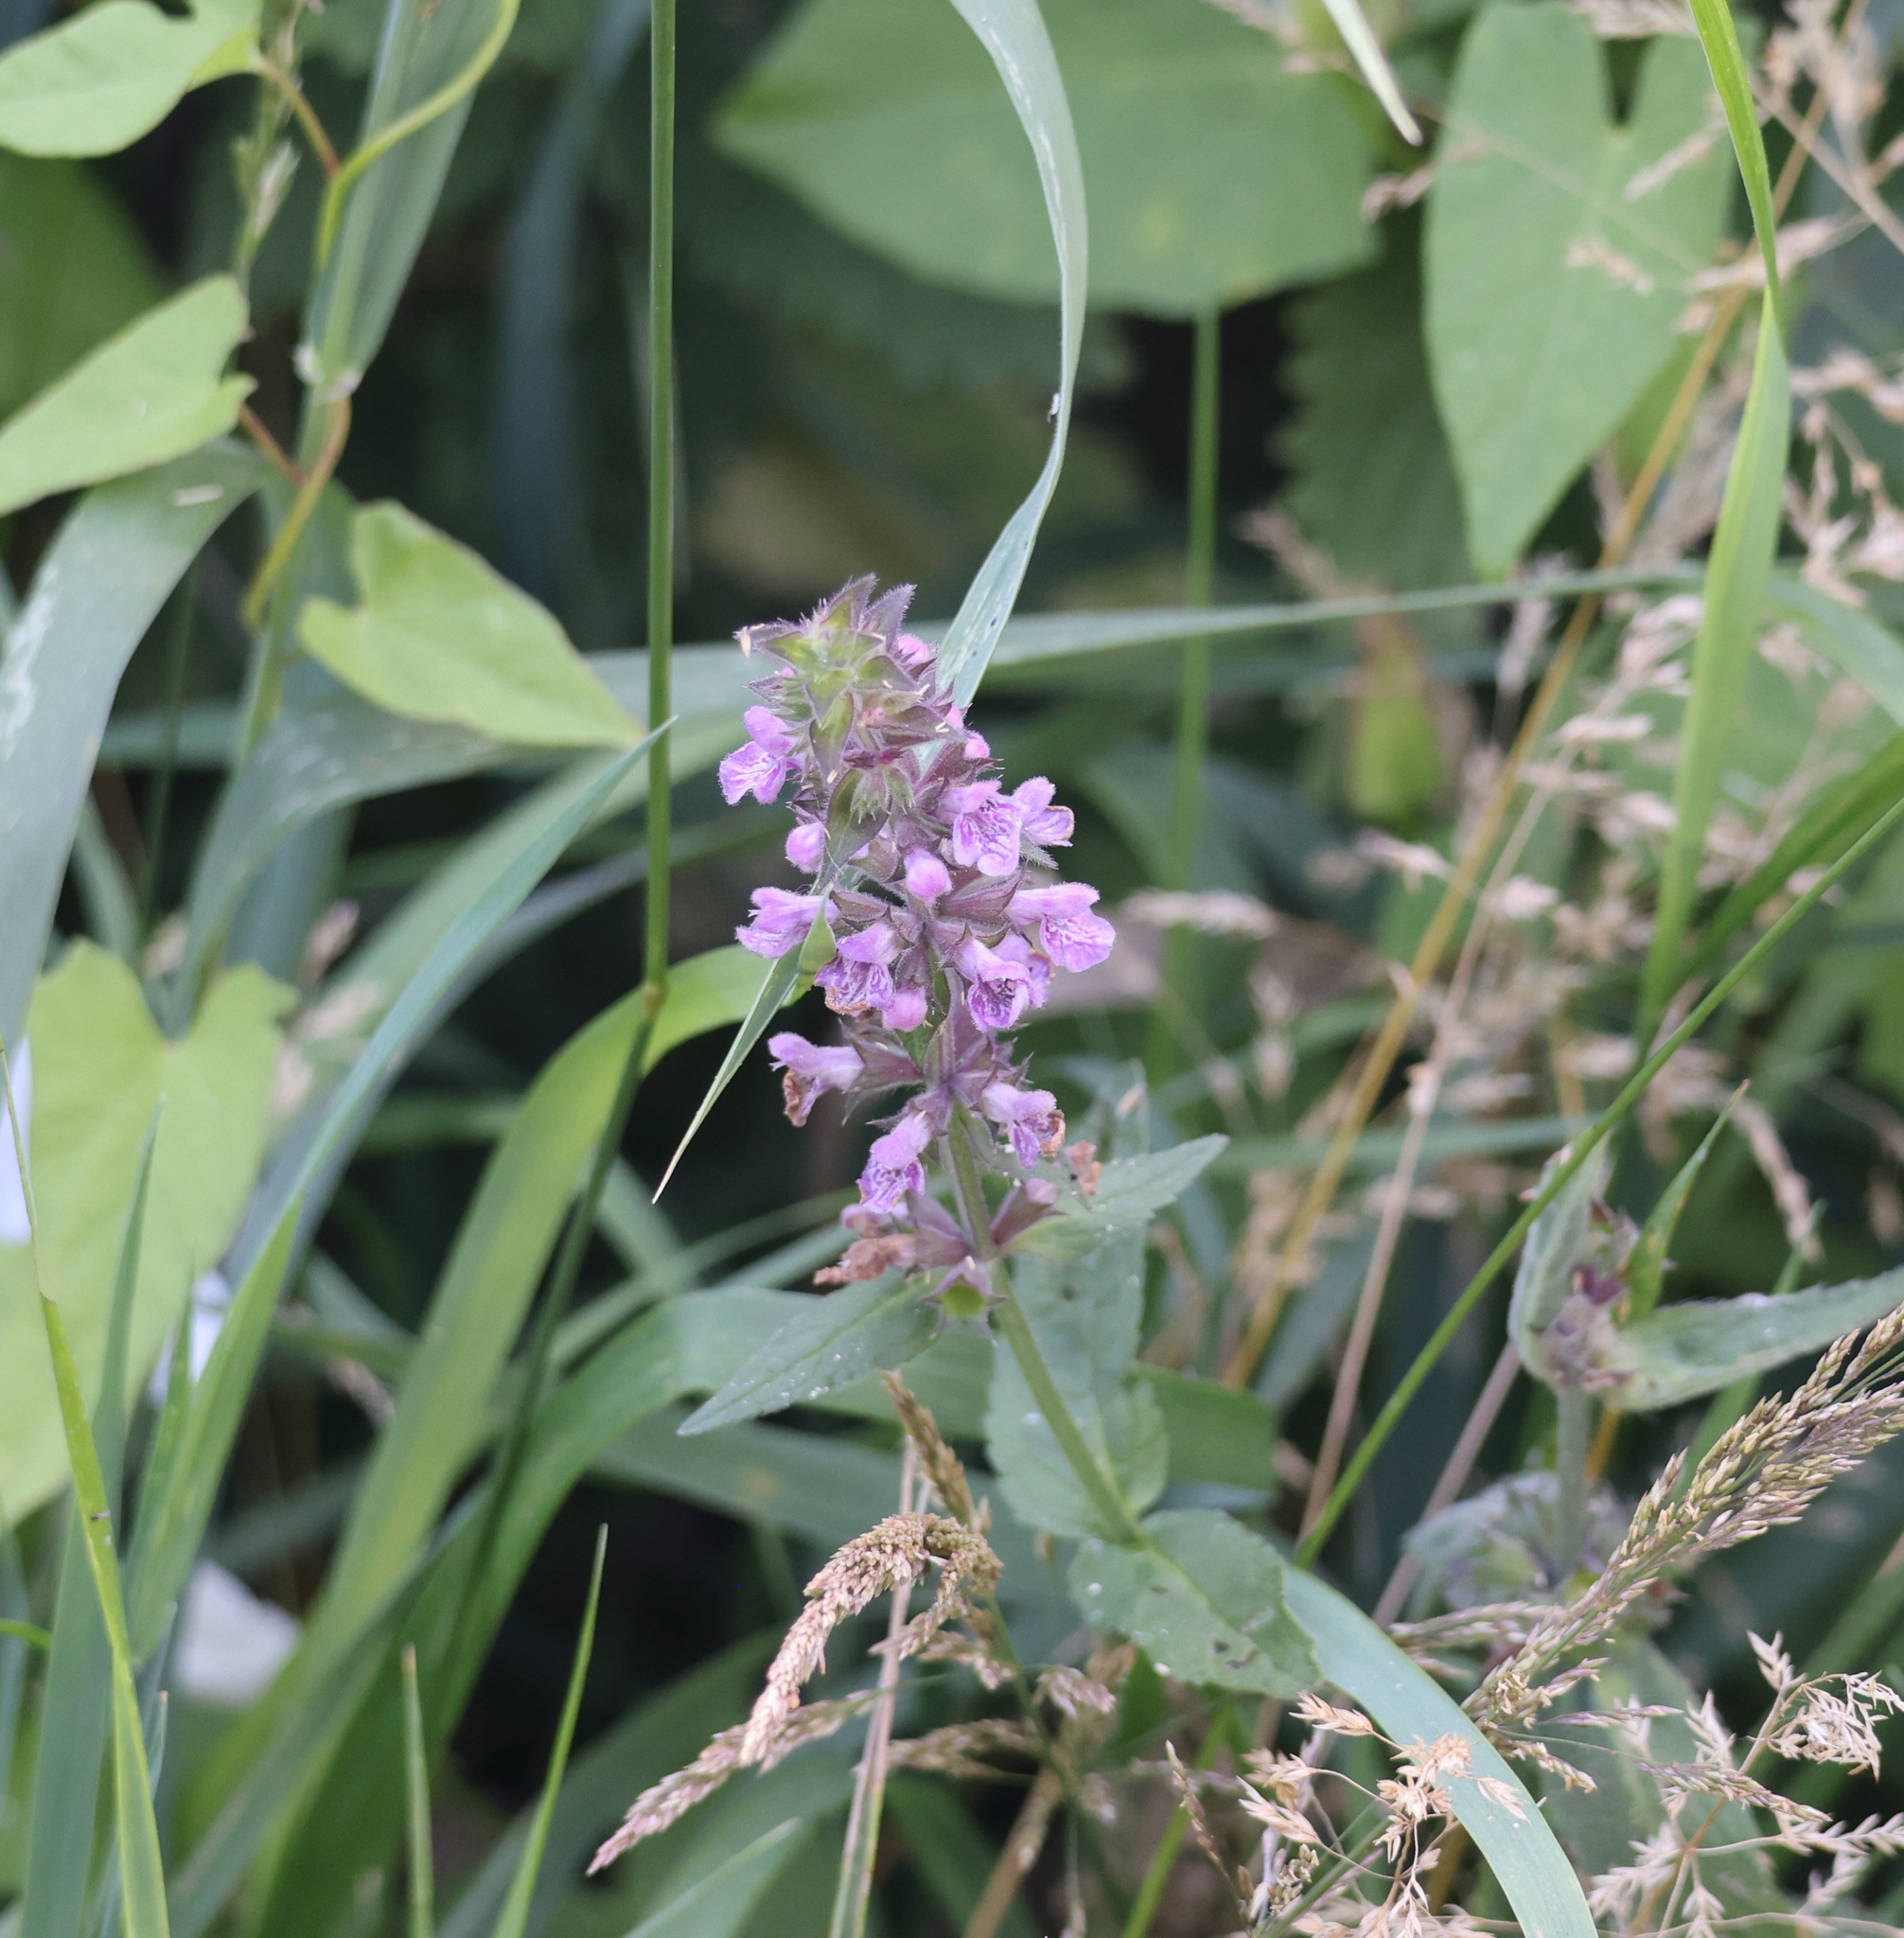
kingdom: Plantae
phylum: Tracheophyta
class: Magnoliopsida
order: Lamiales
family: Lamiaceae
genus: Stachys
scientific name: Stachys palustris
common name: Marsh woundwort
